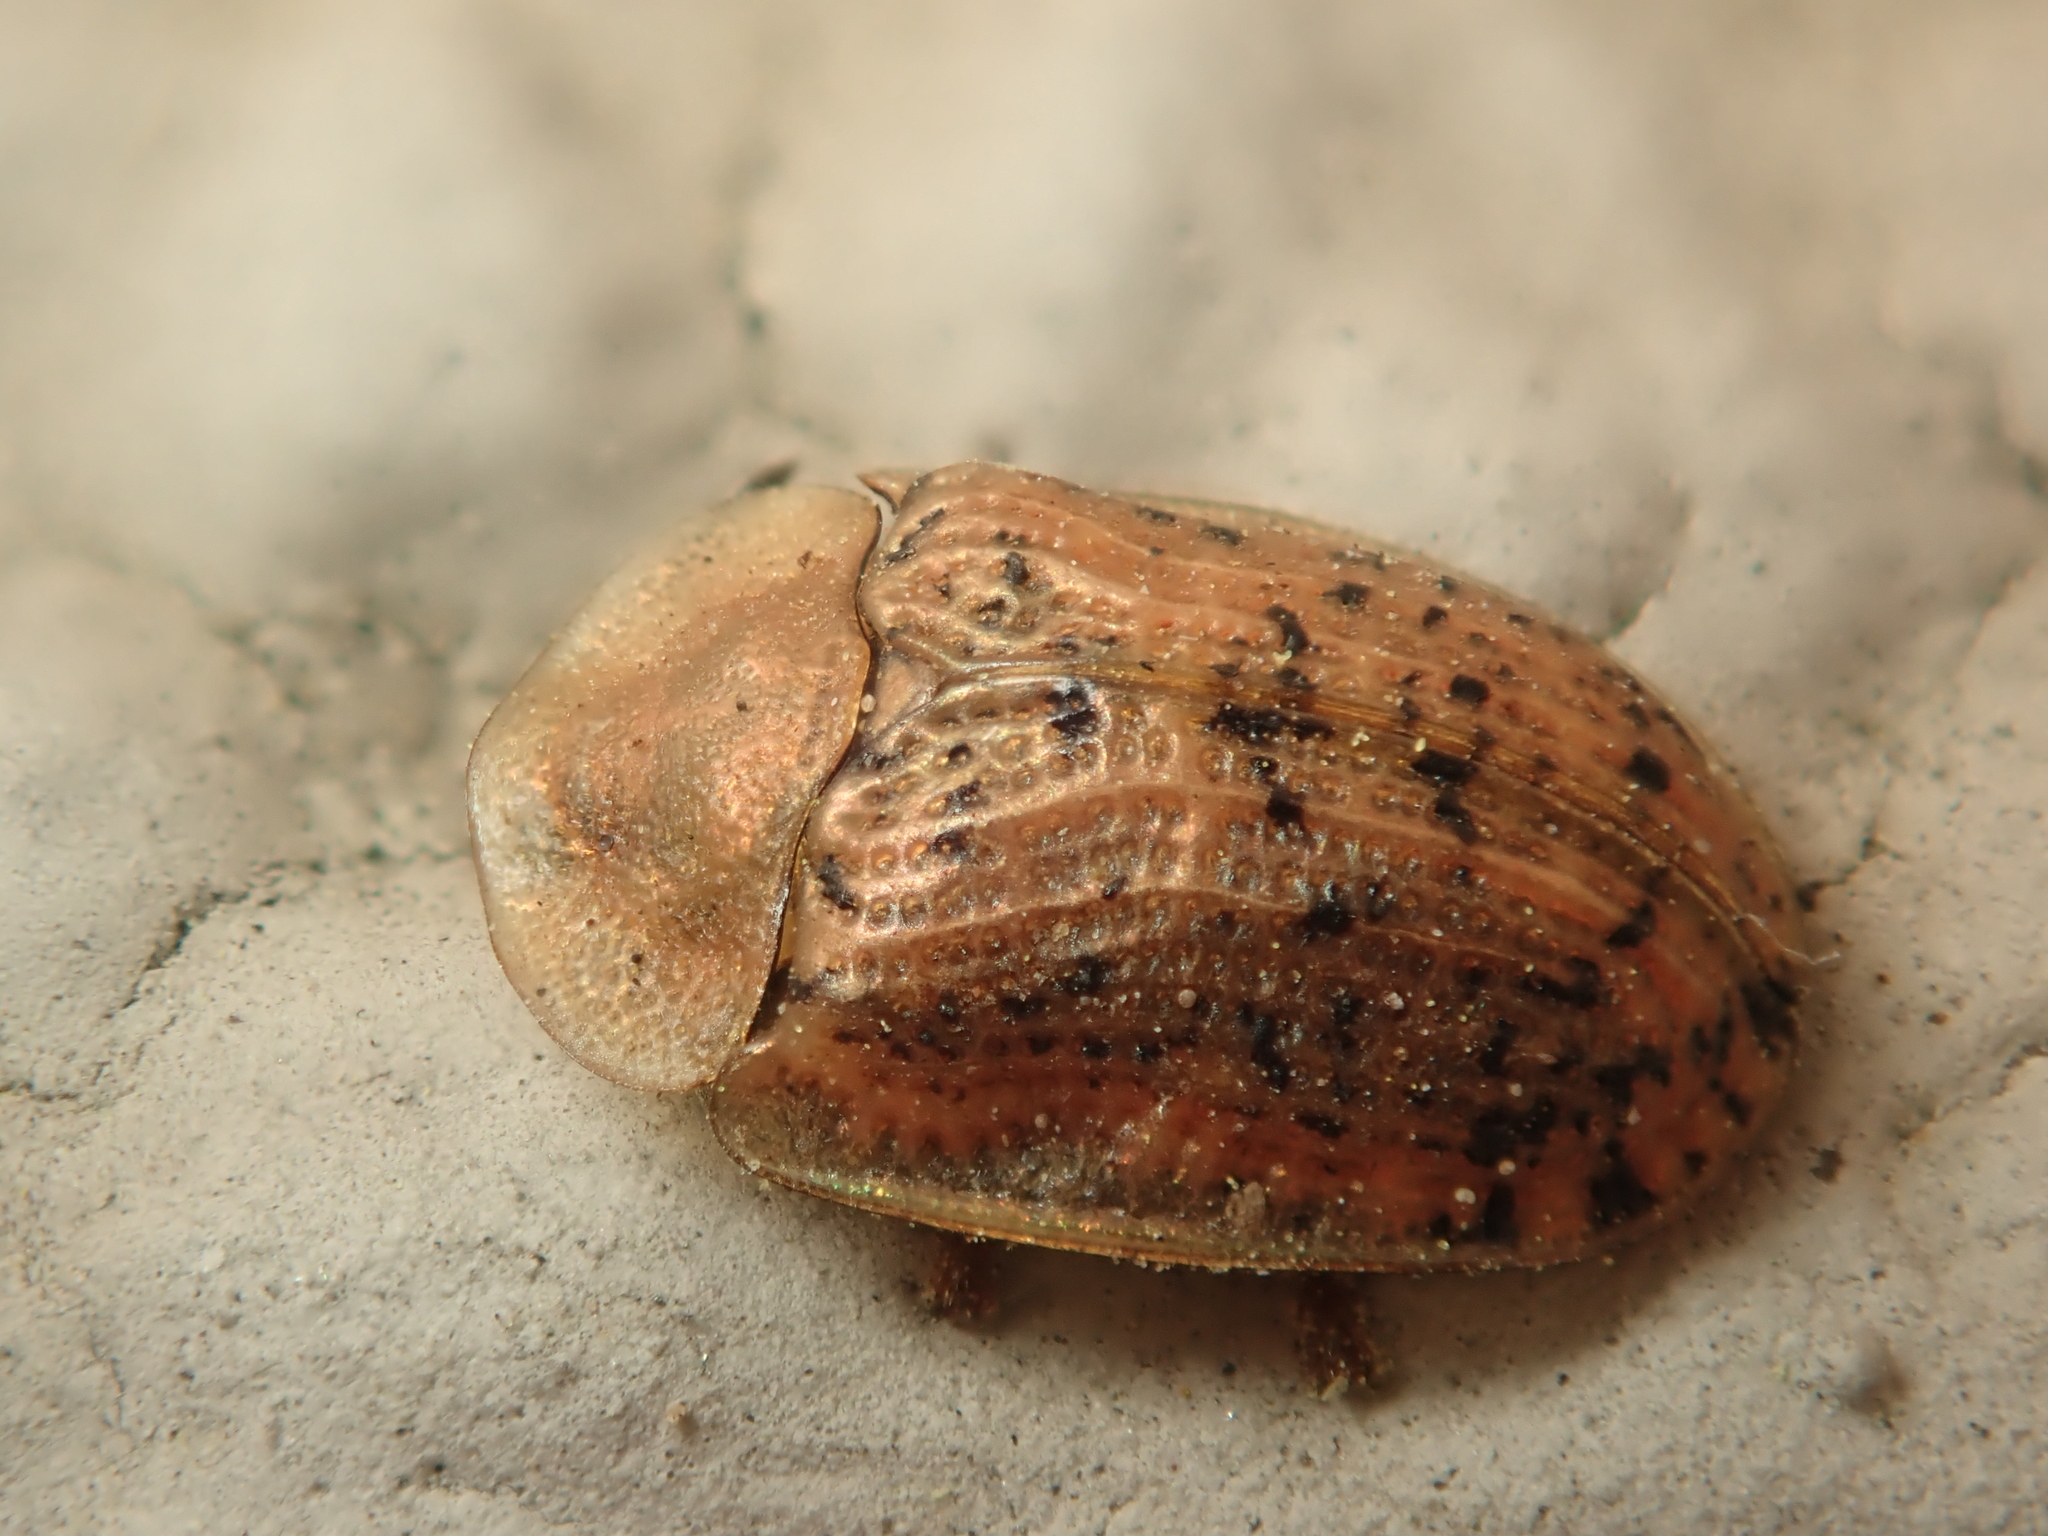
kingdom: Animalia
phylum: Arthropoda
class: Insecta
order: Coleoptera
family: Chrysomelidae
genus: Cassida
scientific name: Cassida nebulosa
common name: Beet tortoise beetle
